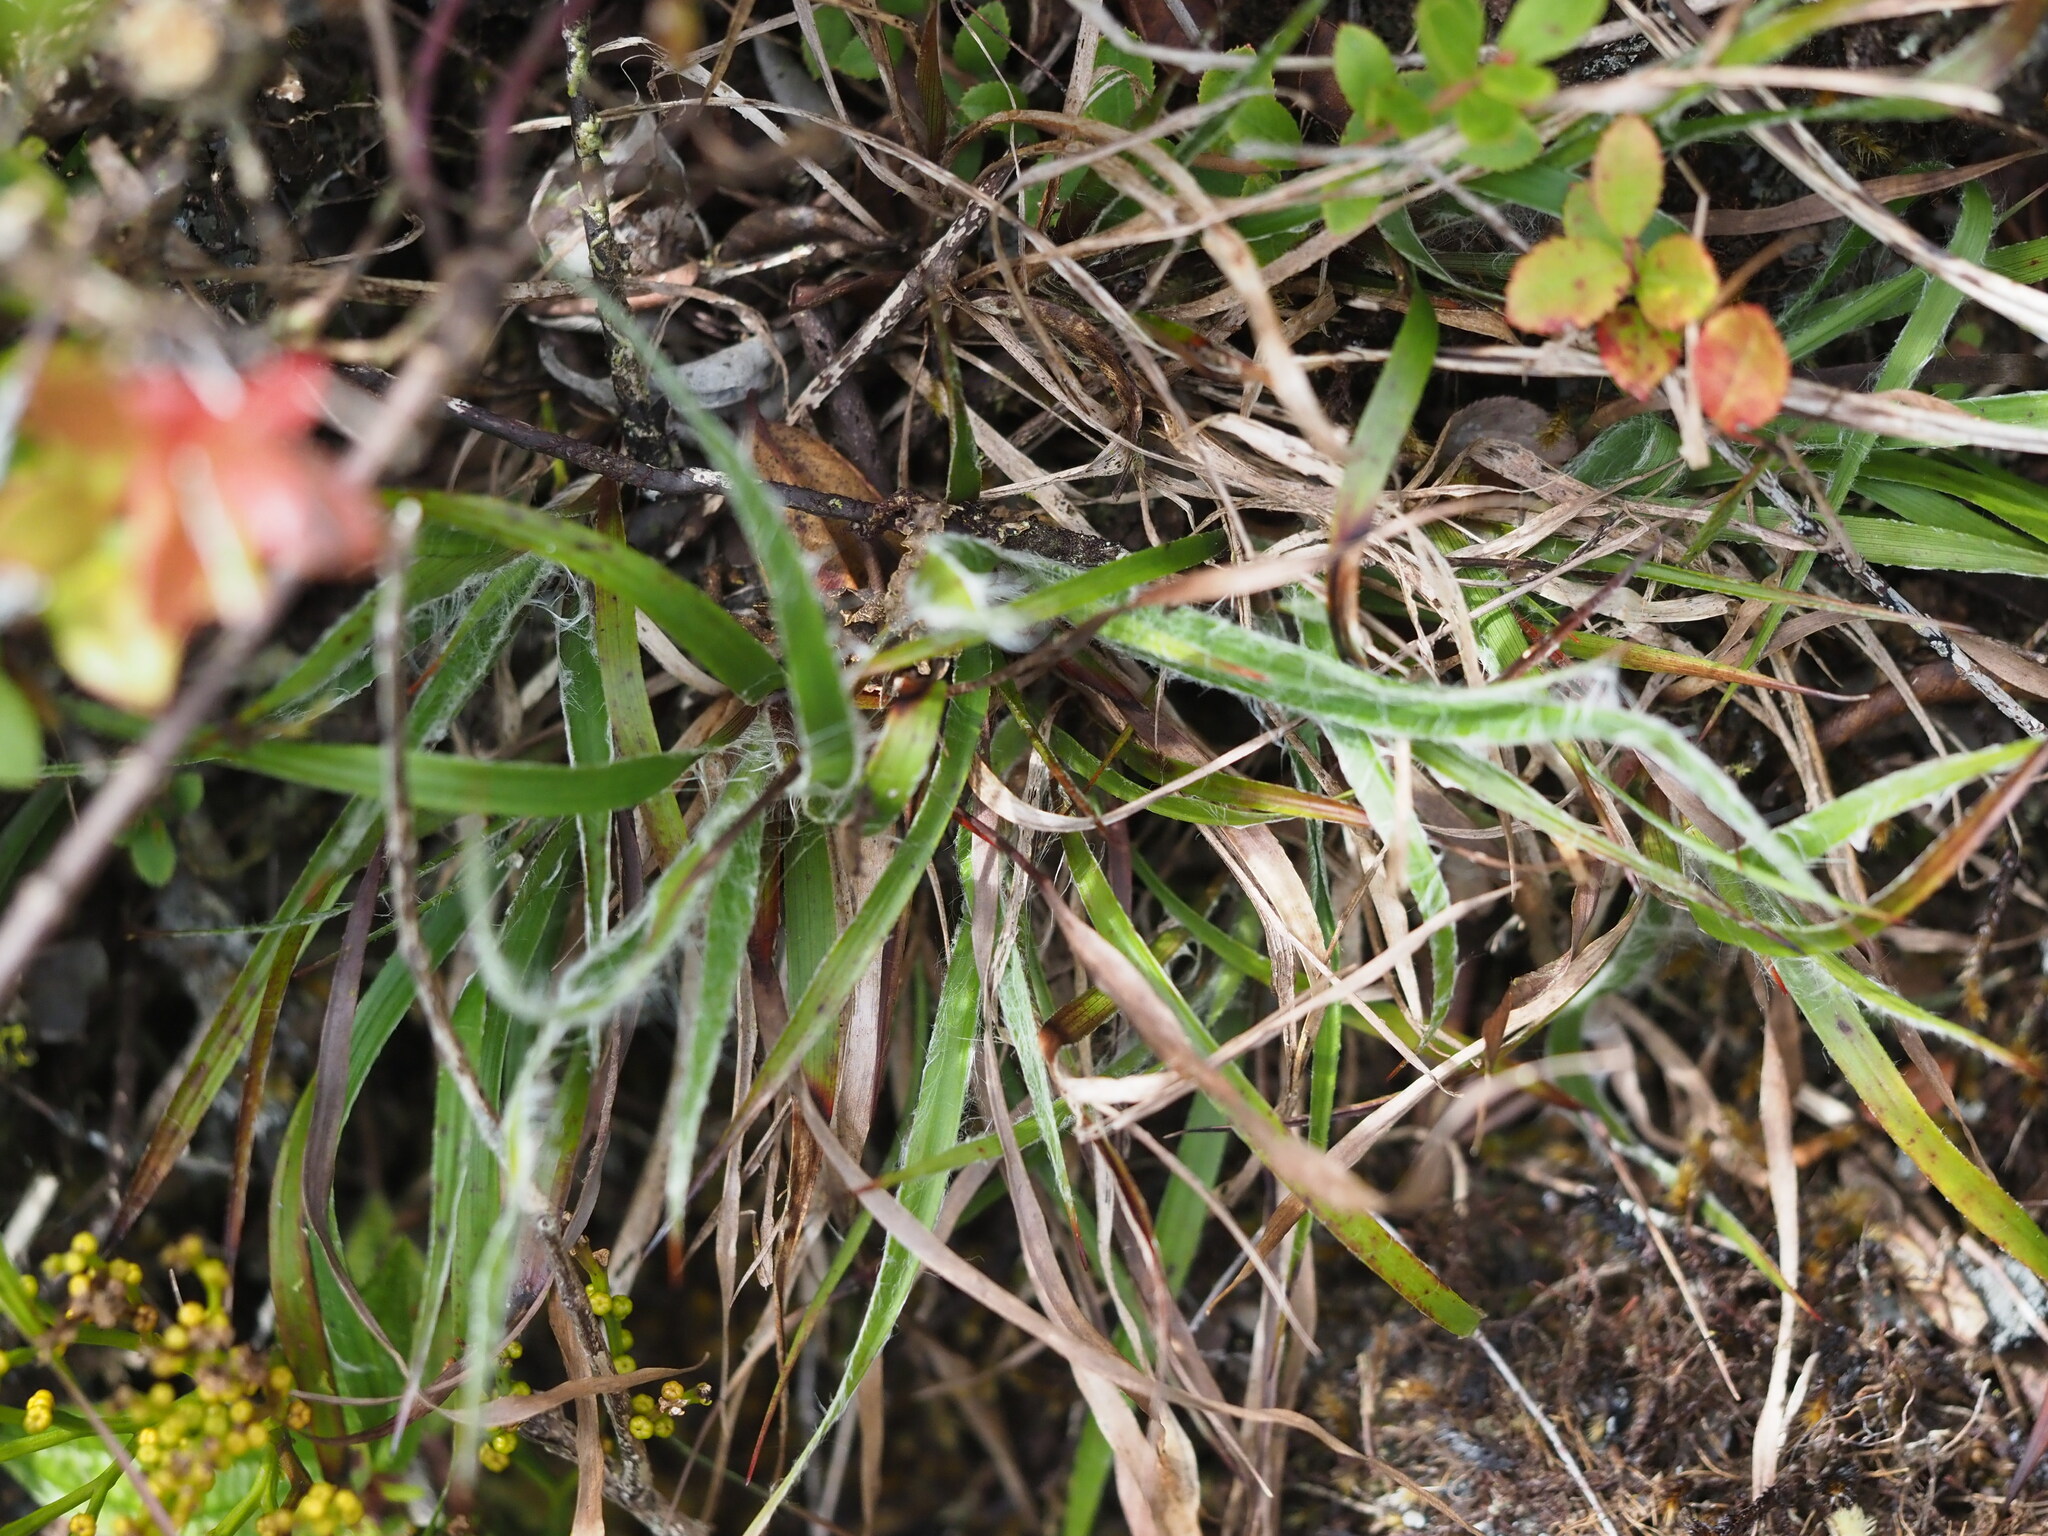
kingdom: Plantae
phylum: Tracheophyta
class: Liliopsida
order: Poales
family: Juncaceae
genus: Luzula
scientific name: Luzula hawaiiensis
